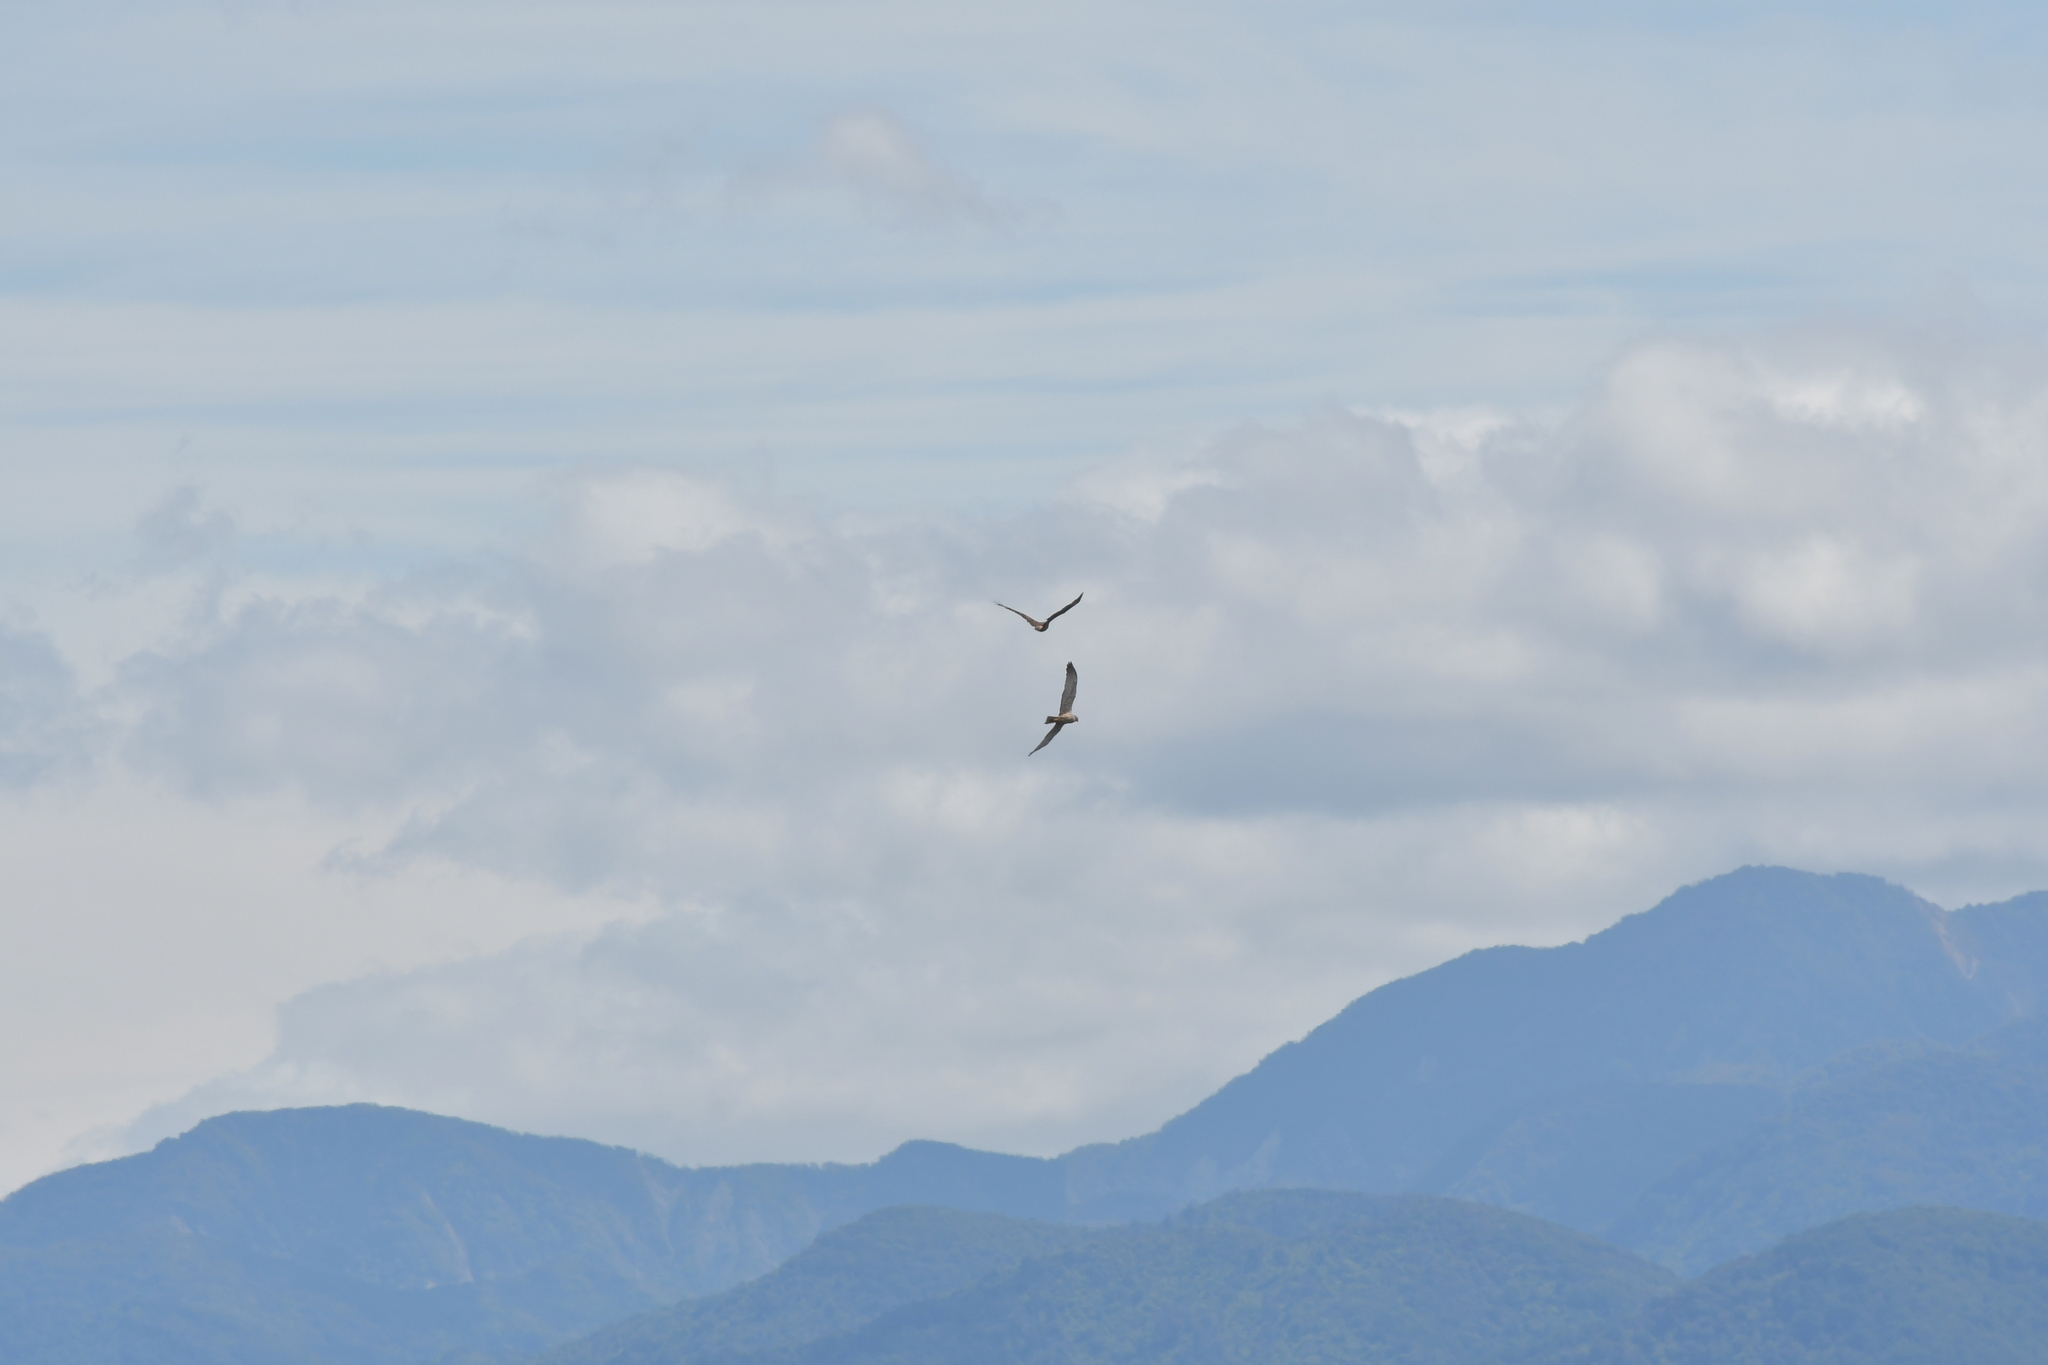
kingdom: Animalia
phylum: Chordata
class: Aves
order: Accipitriformes
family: Accipitridae
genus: Circus
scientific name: Circus approximans
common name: Swamp harrier
